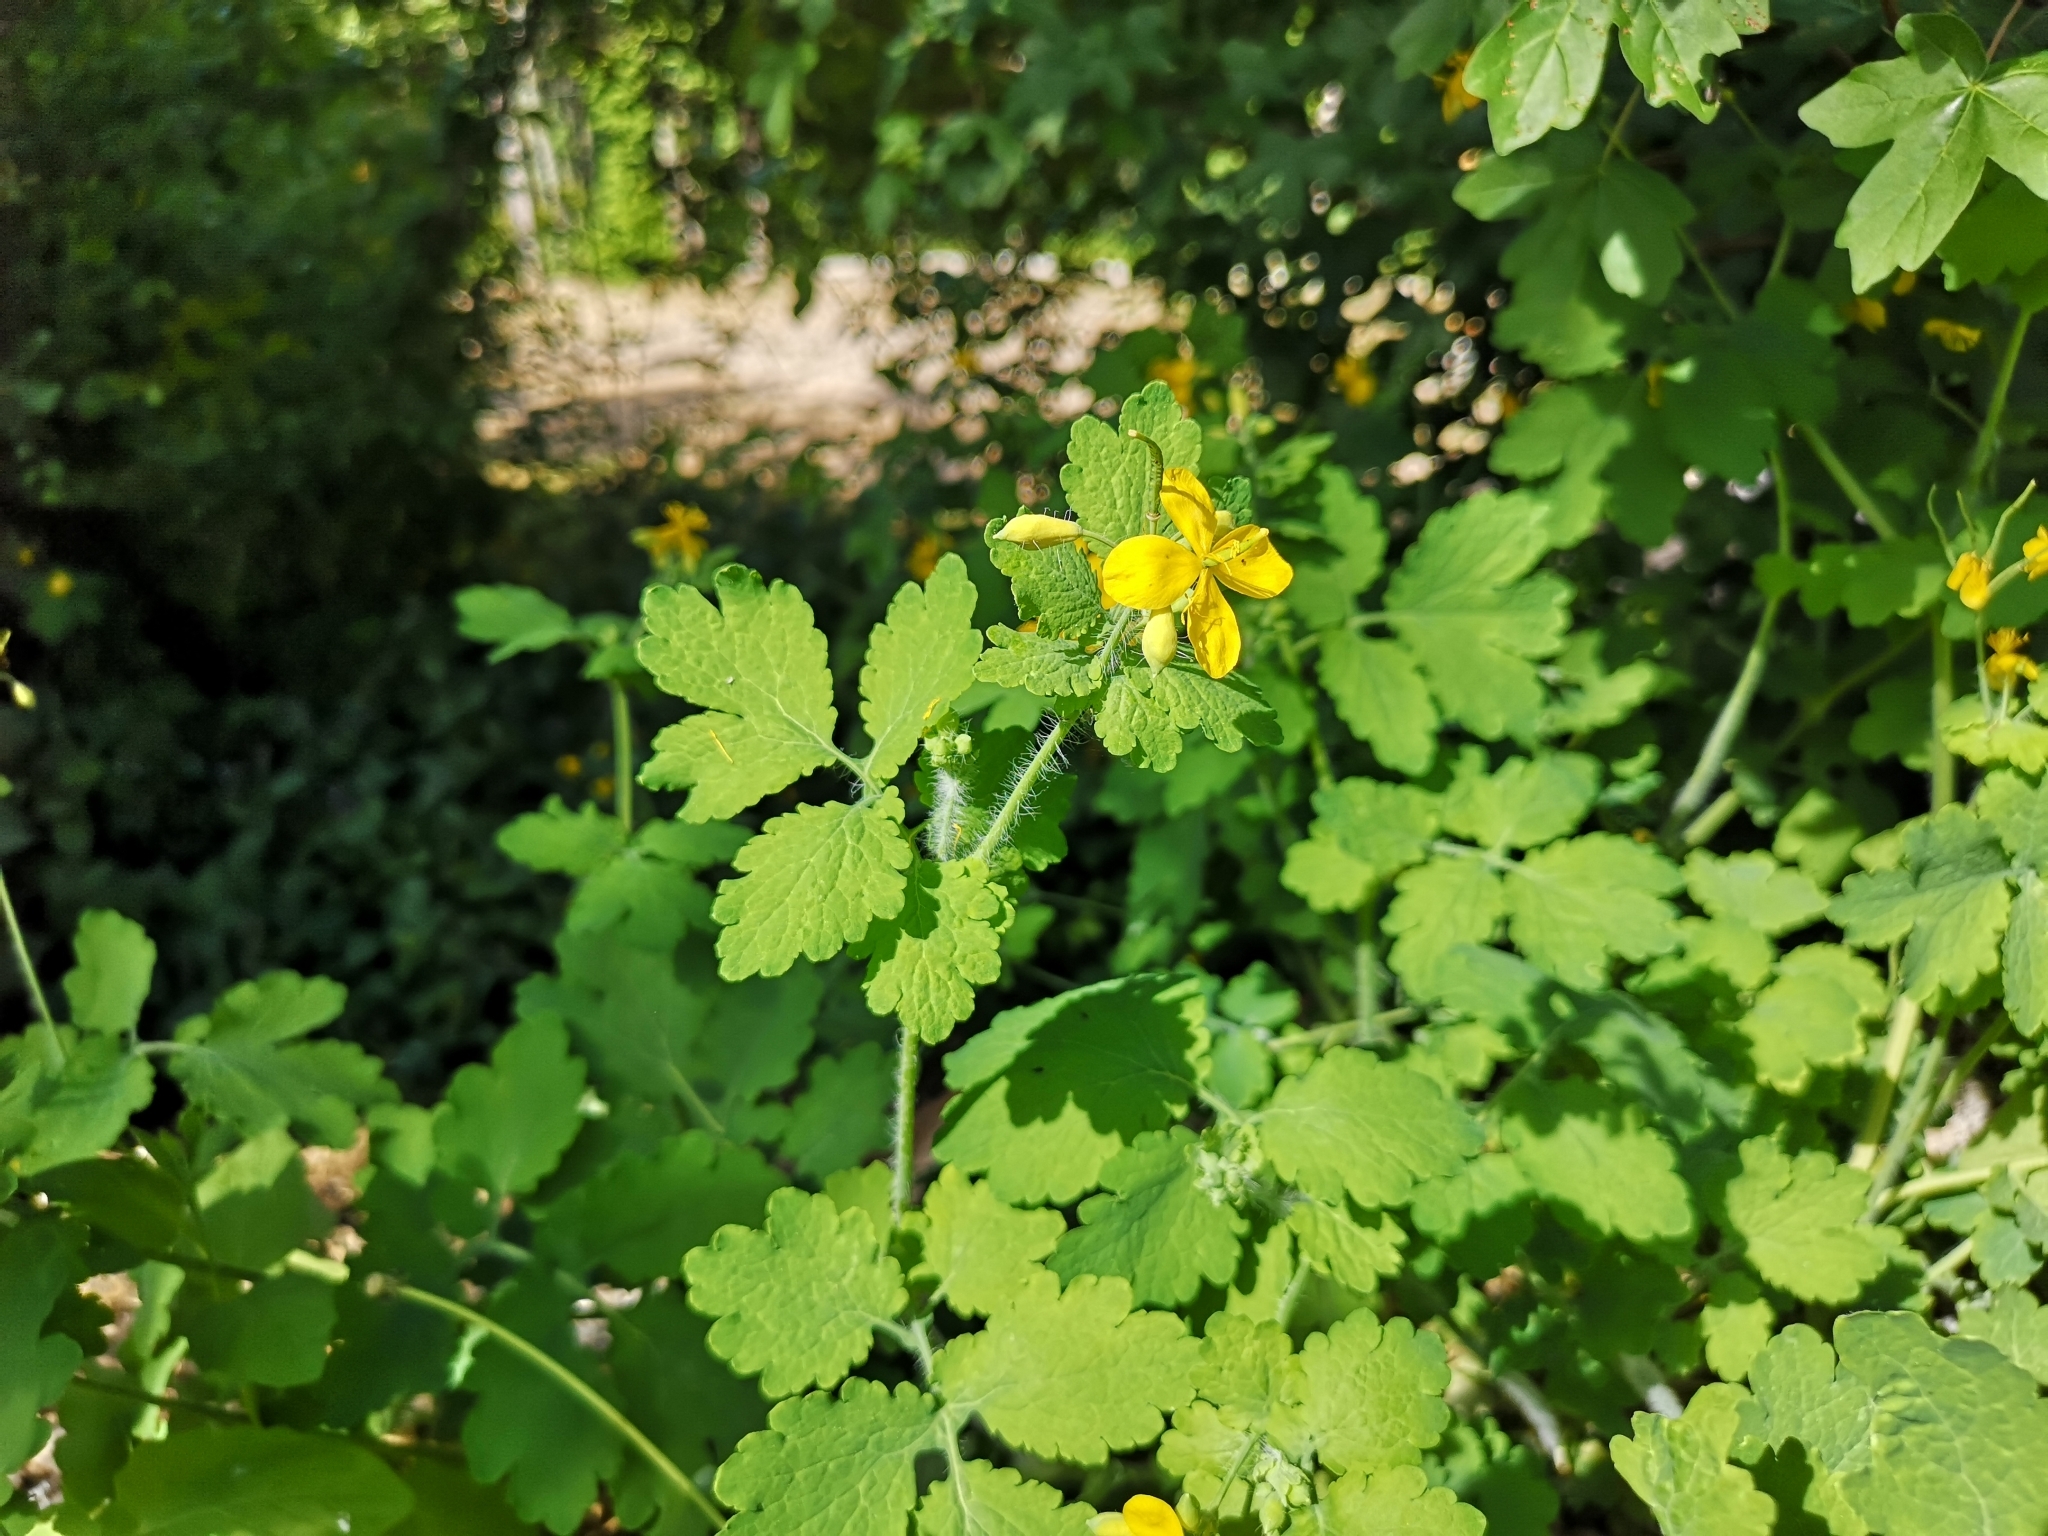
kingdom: Plantae
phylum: Tracheophyta
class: Magnoliopsida
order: Ranunculales
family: Papaveraceae
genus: Chelidonium
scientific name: Chelidonium majus
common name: Greater celandine
